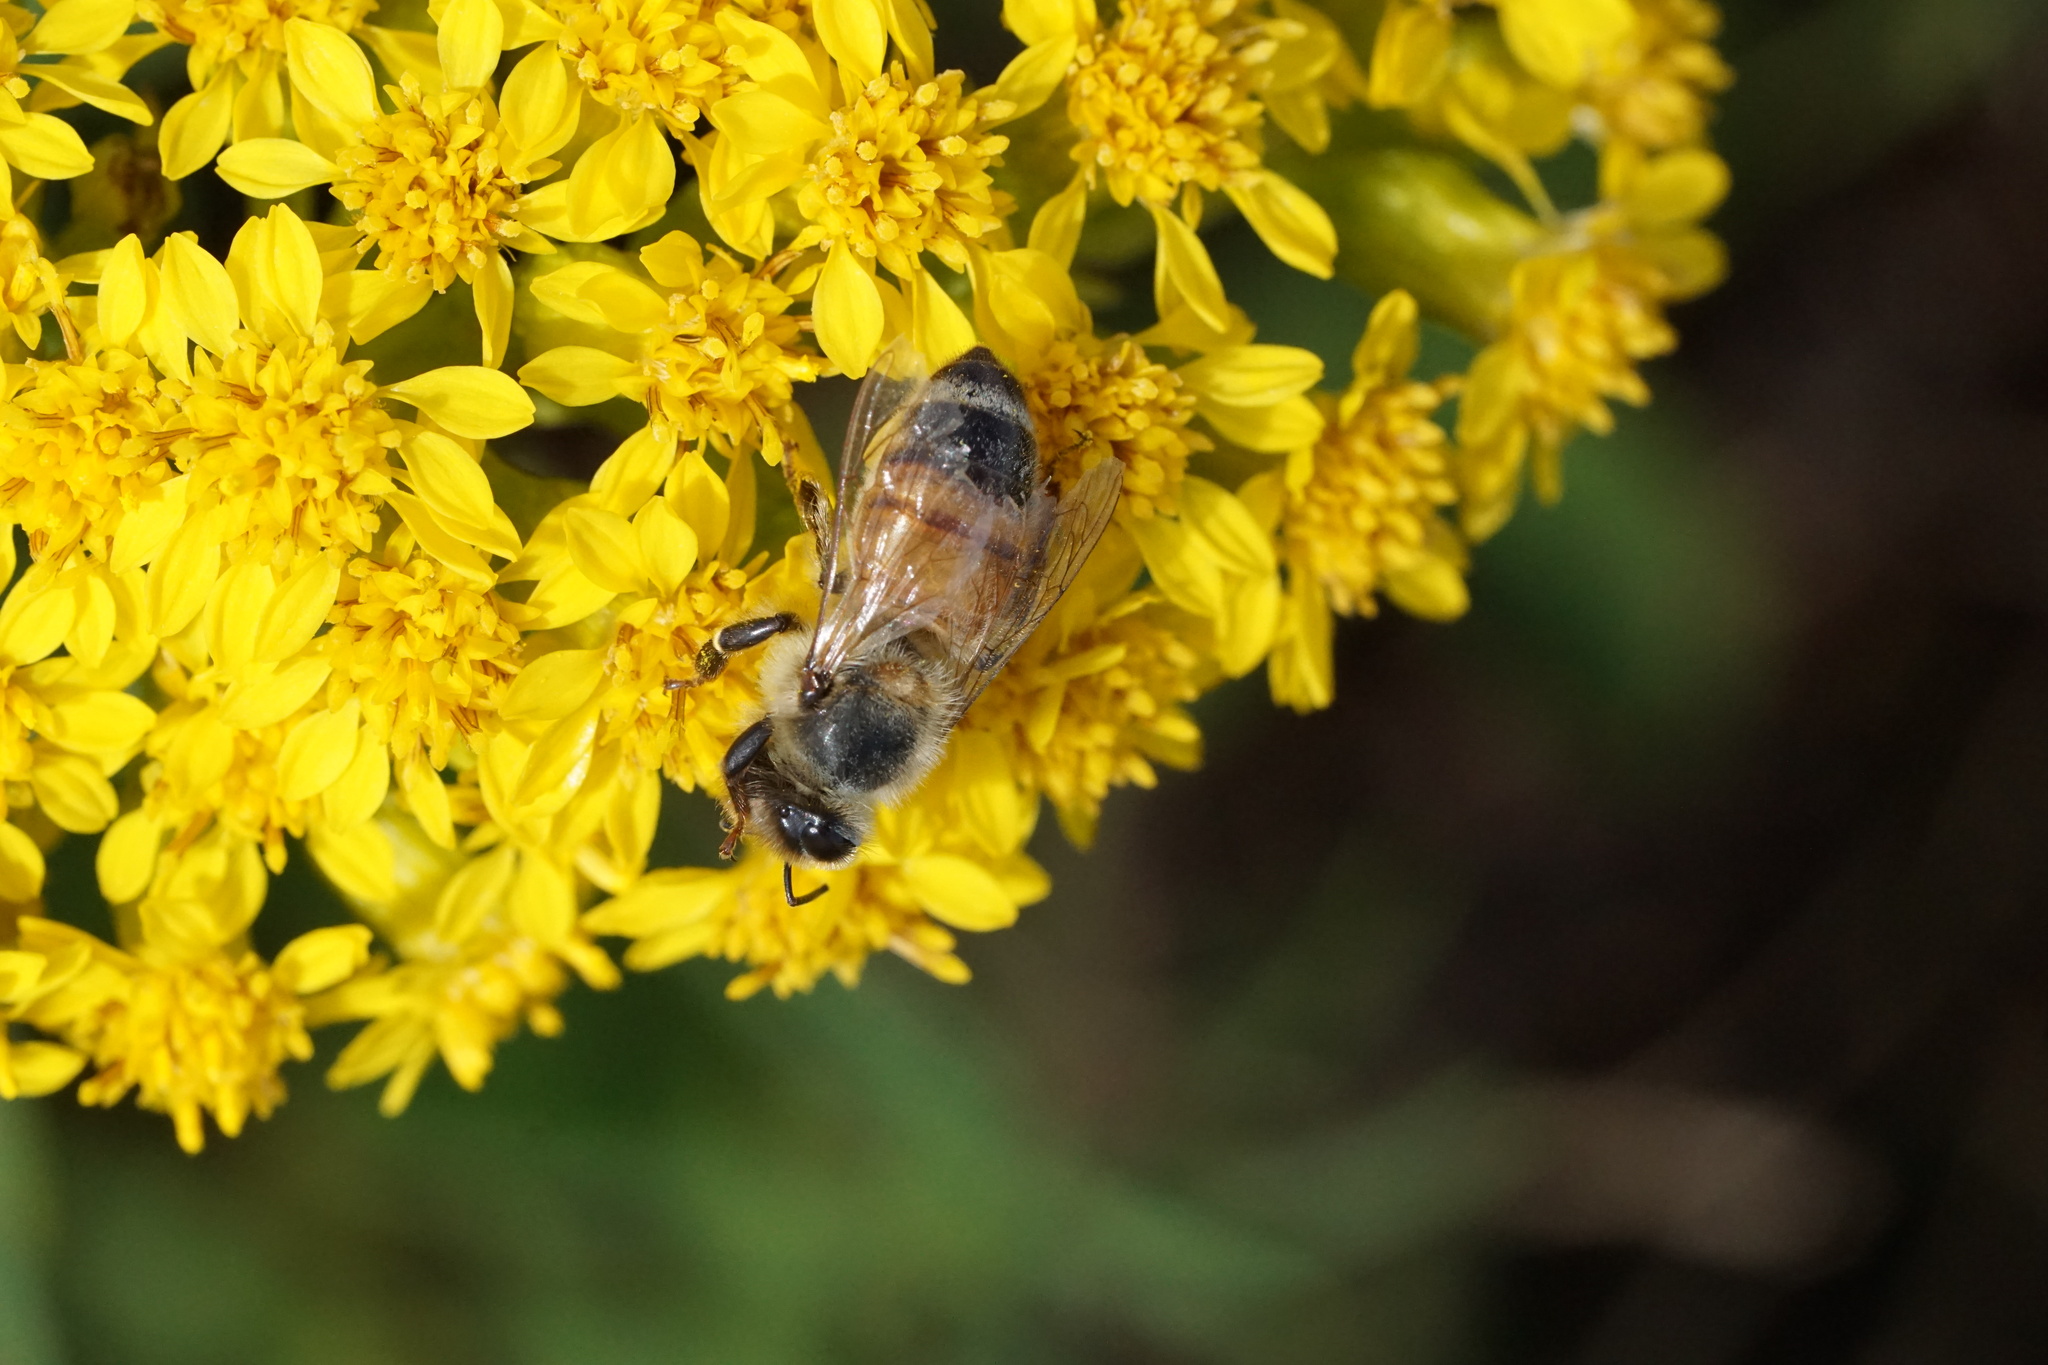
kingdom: Animalia
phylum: Arthropoda
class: Insecta
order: Hymenoptera
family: Apidae
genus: Apis
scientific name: Apis mellifera
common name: Honey bee
